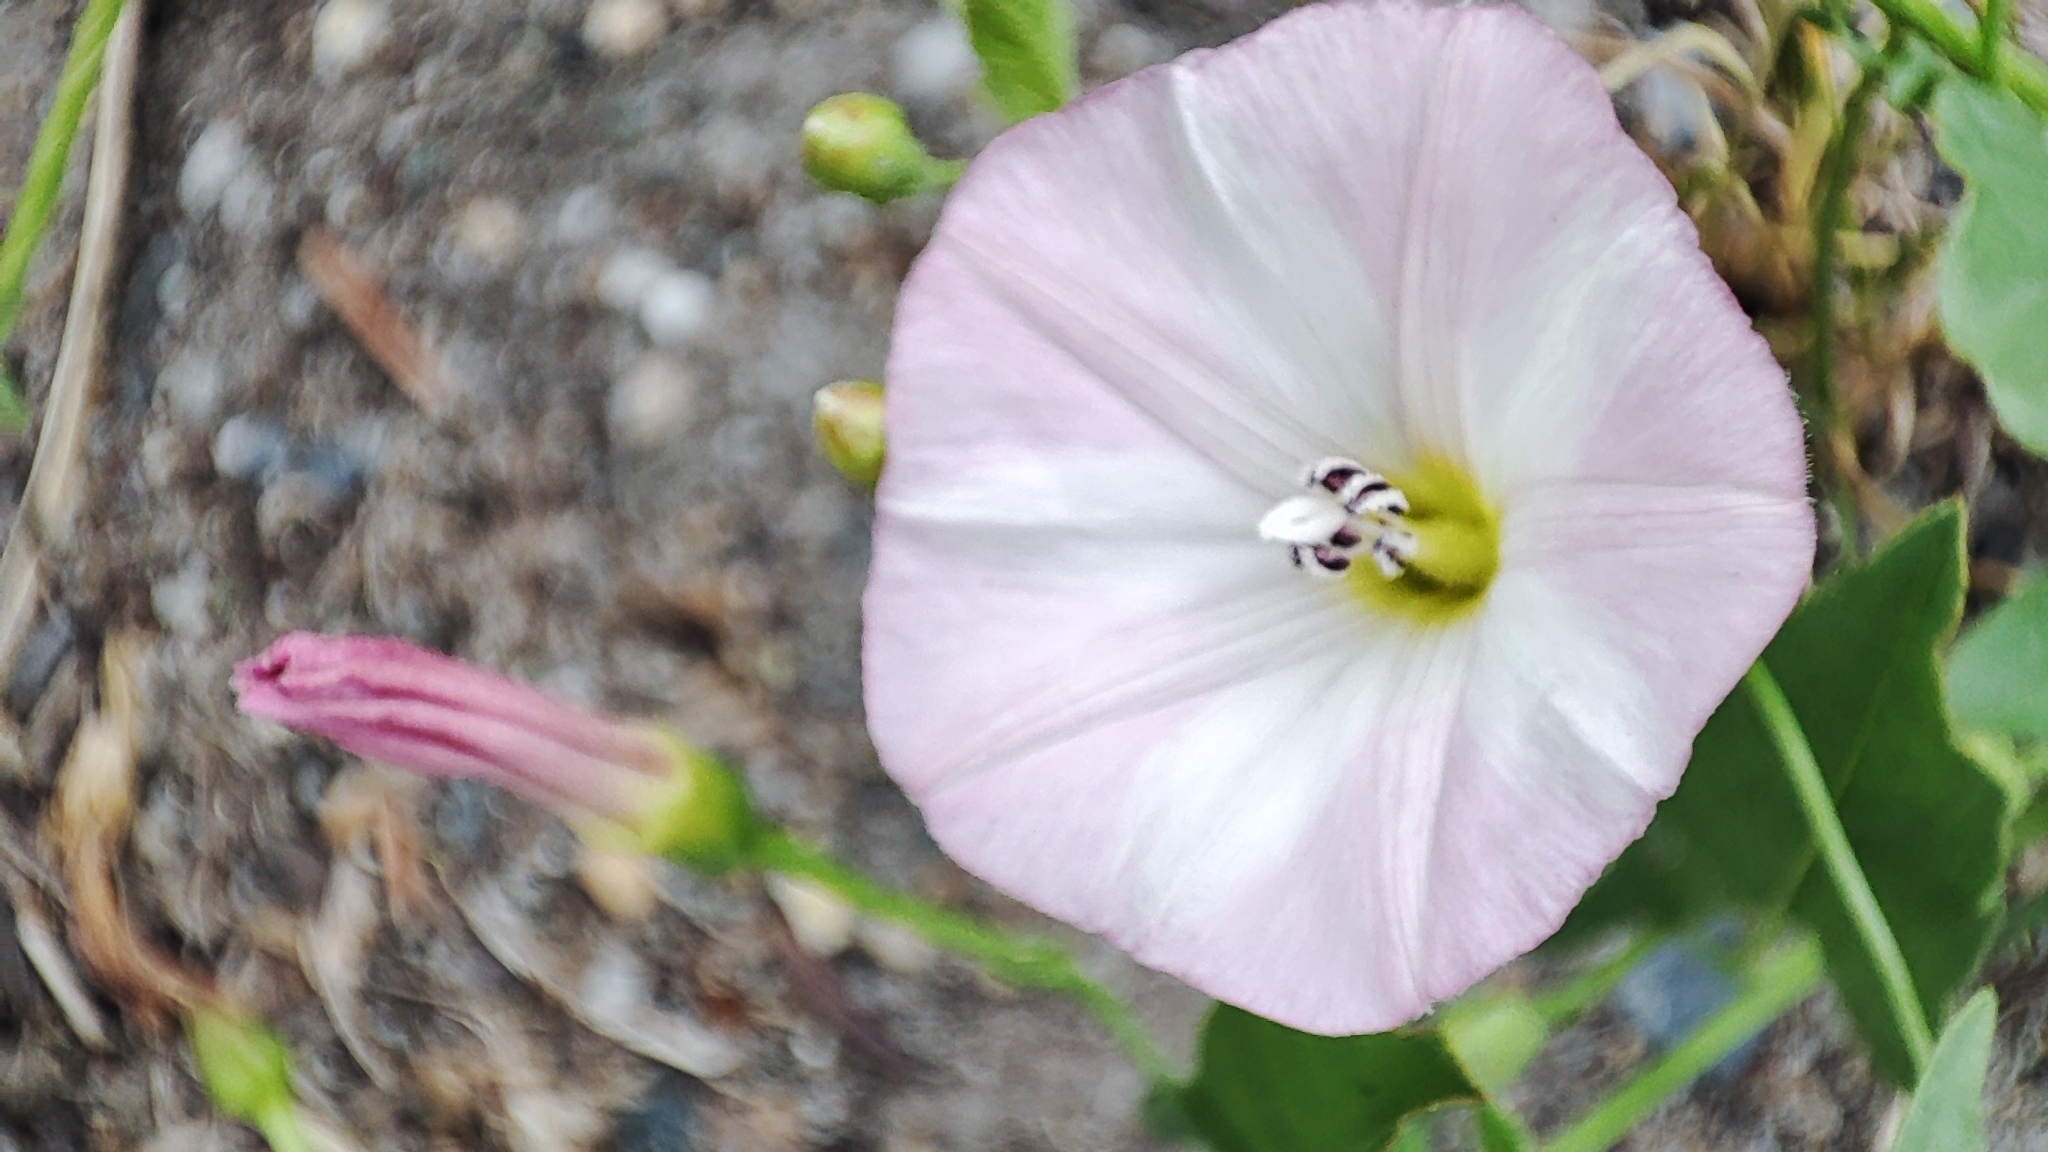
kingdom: Plantae
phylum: Tracheophyta
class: Magnoliopsida
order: Solanales
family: Convolvulaceae
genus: Convolvulus
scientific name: Convolvulus arvensis
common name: Field bindweed
